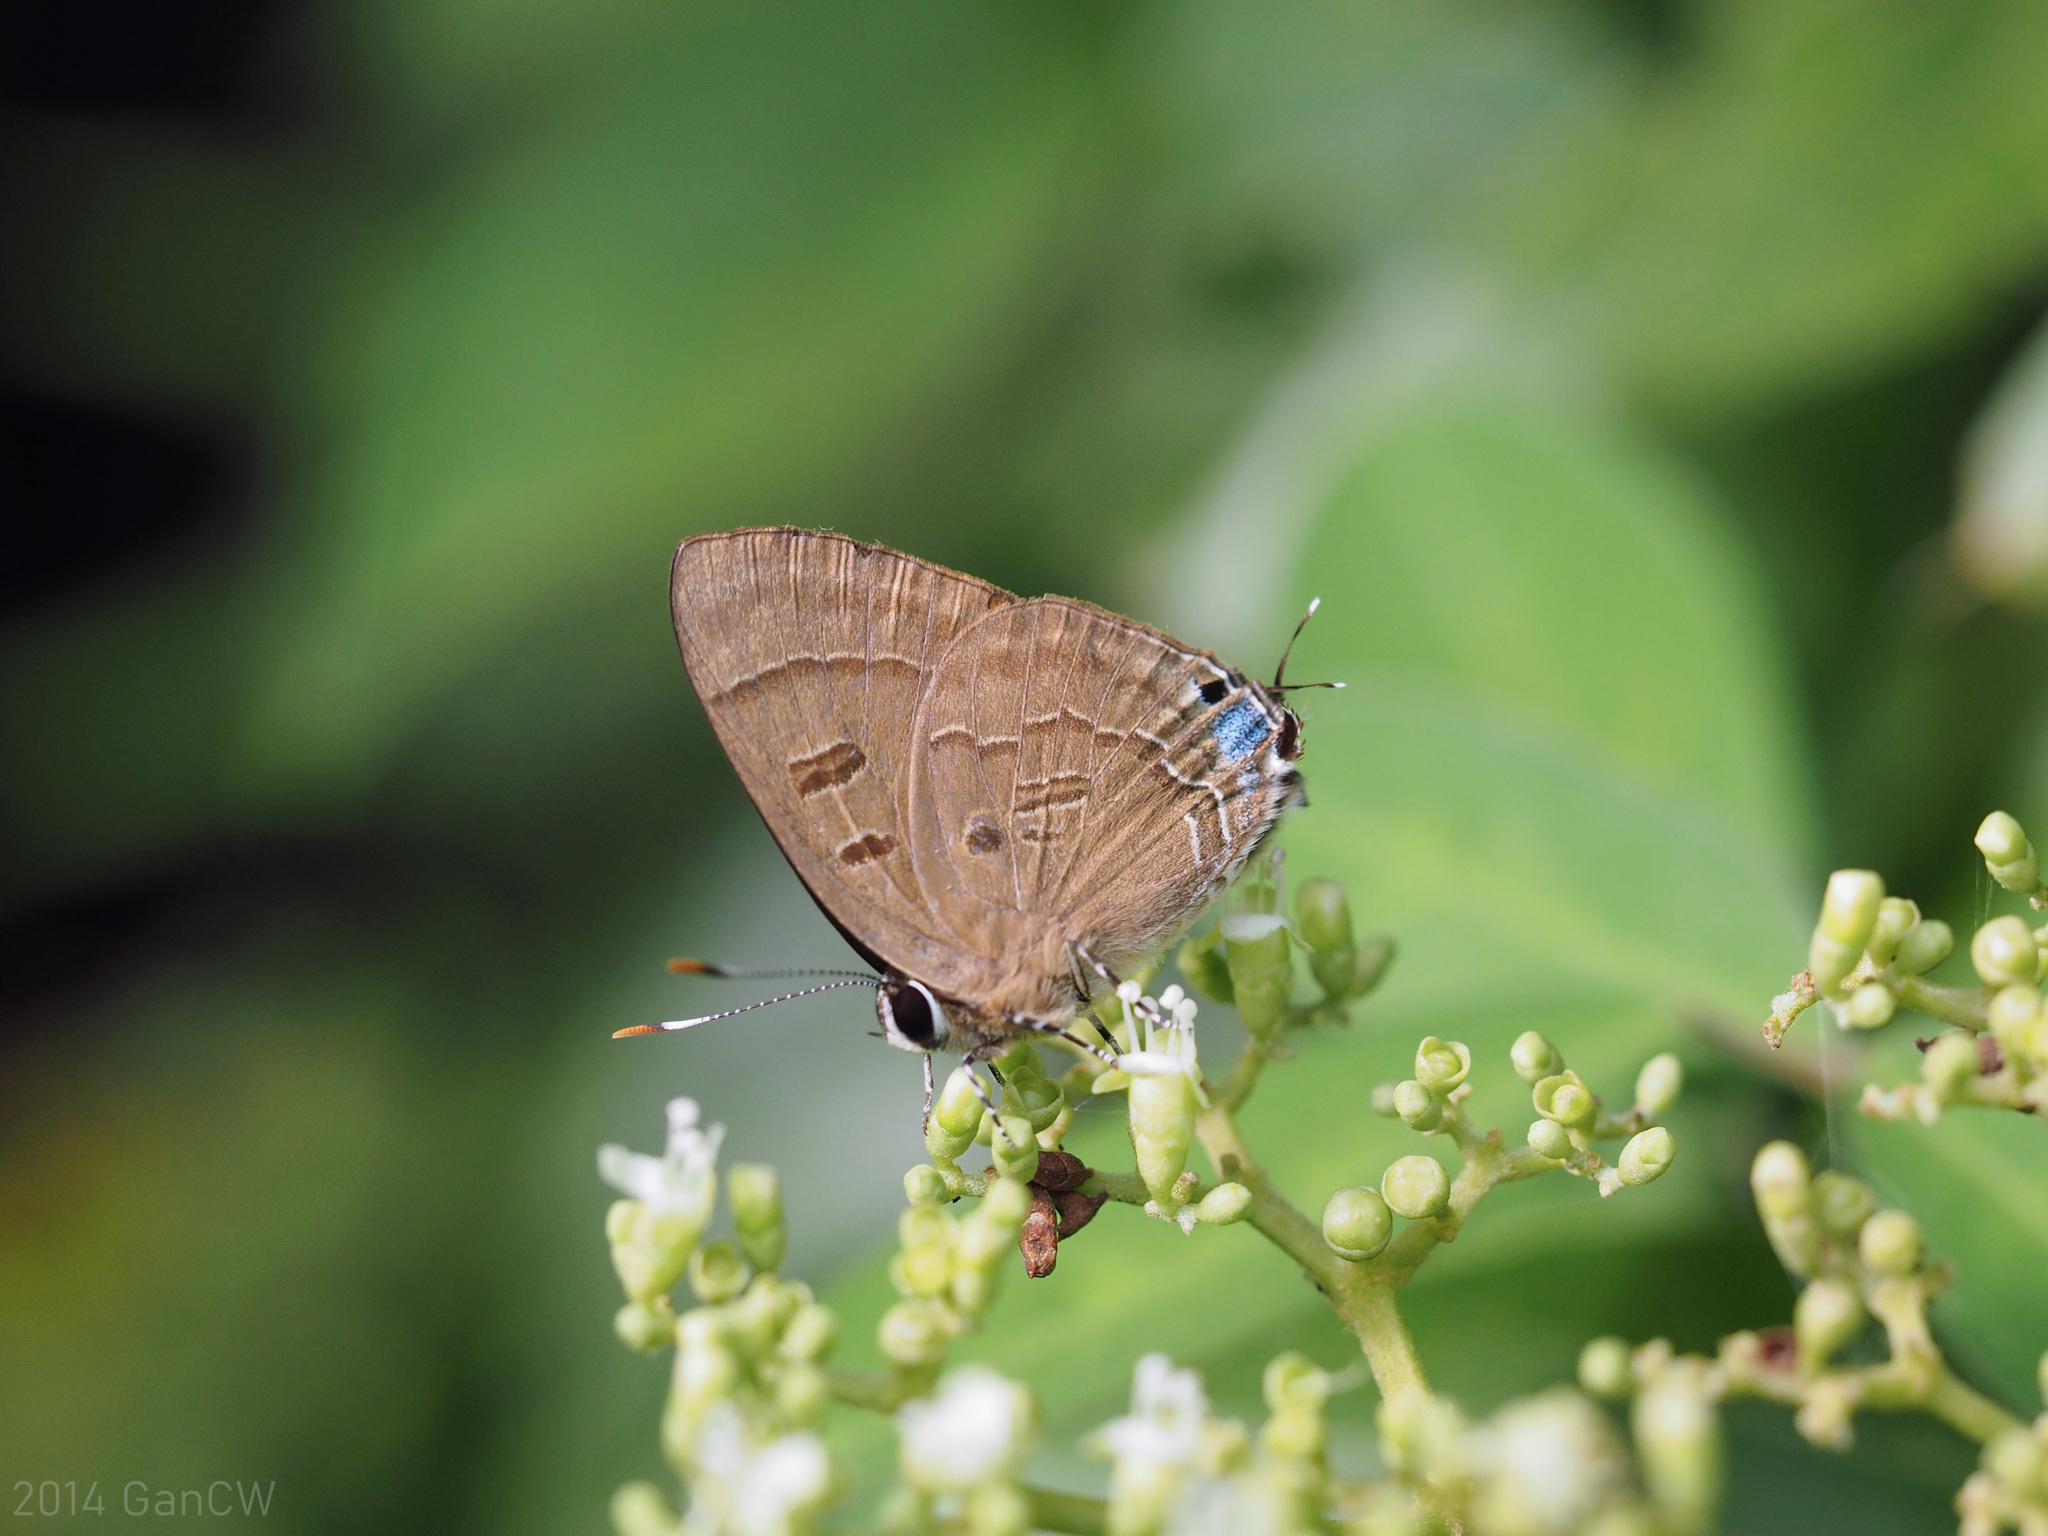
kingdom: Animalia
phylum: Arthropoda
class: Insecta
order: Lepidoptera
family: Lycaenidae
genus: Rapala
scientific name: Rapala pheretima
